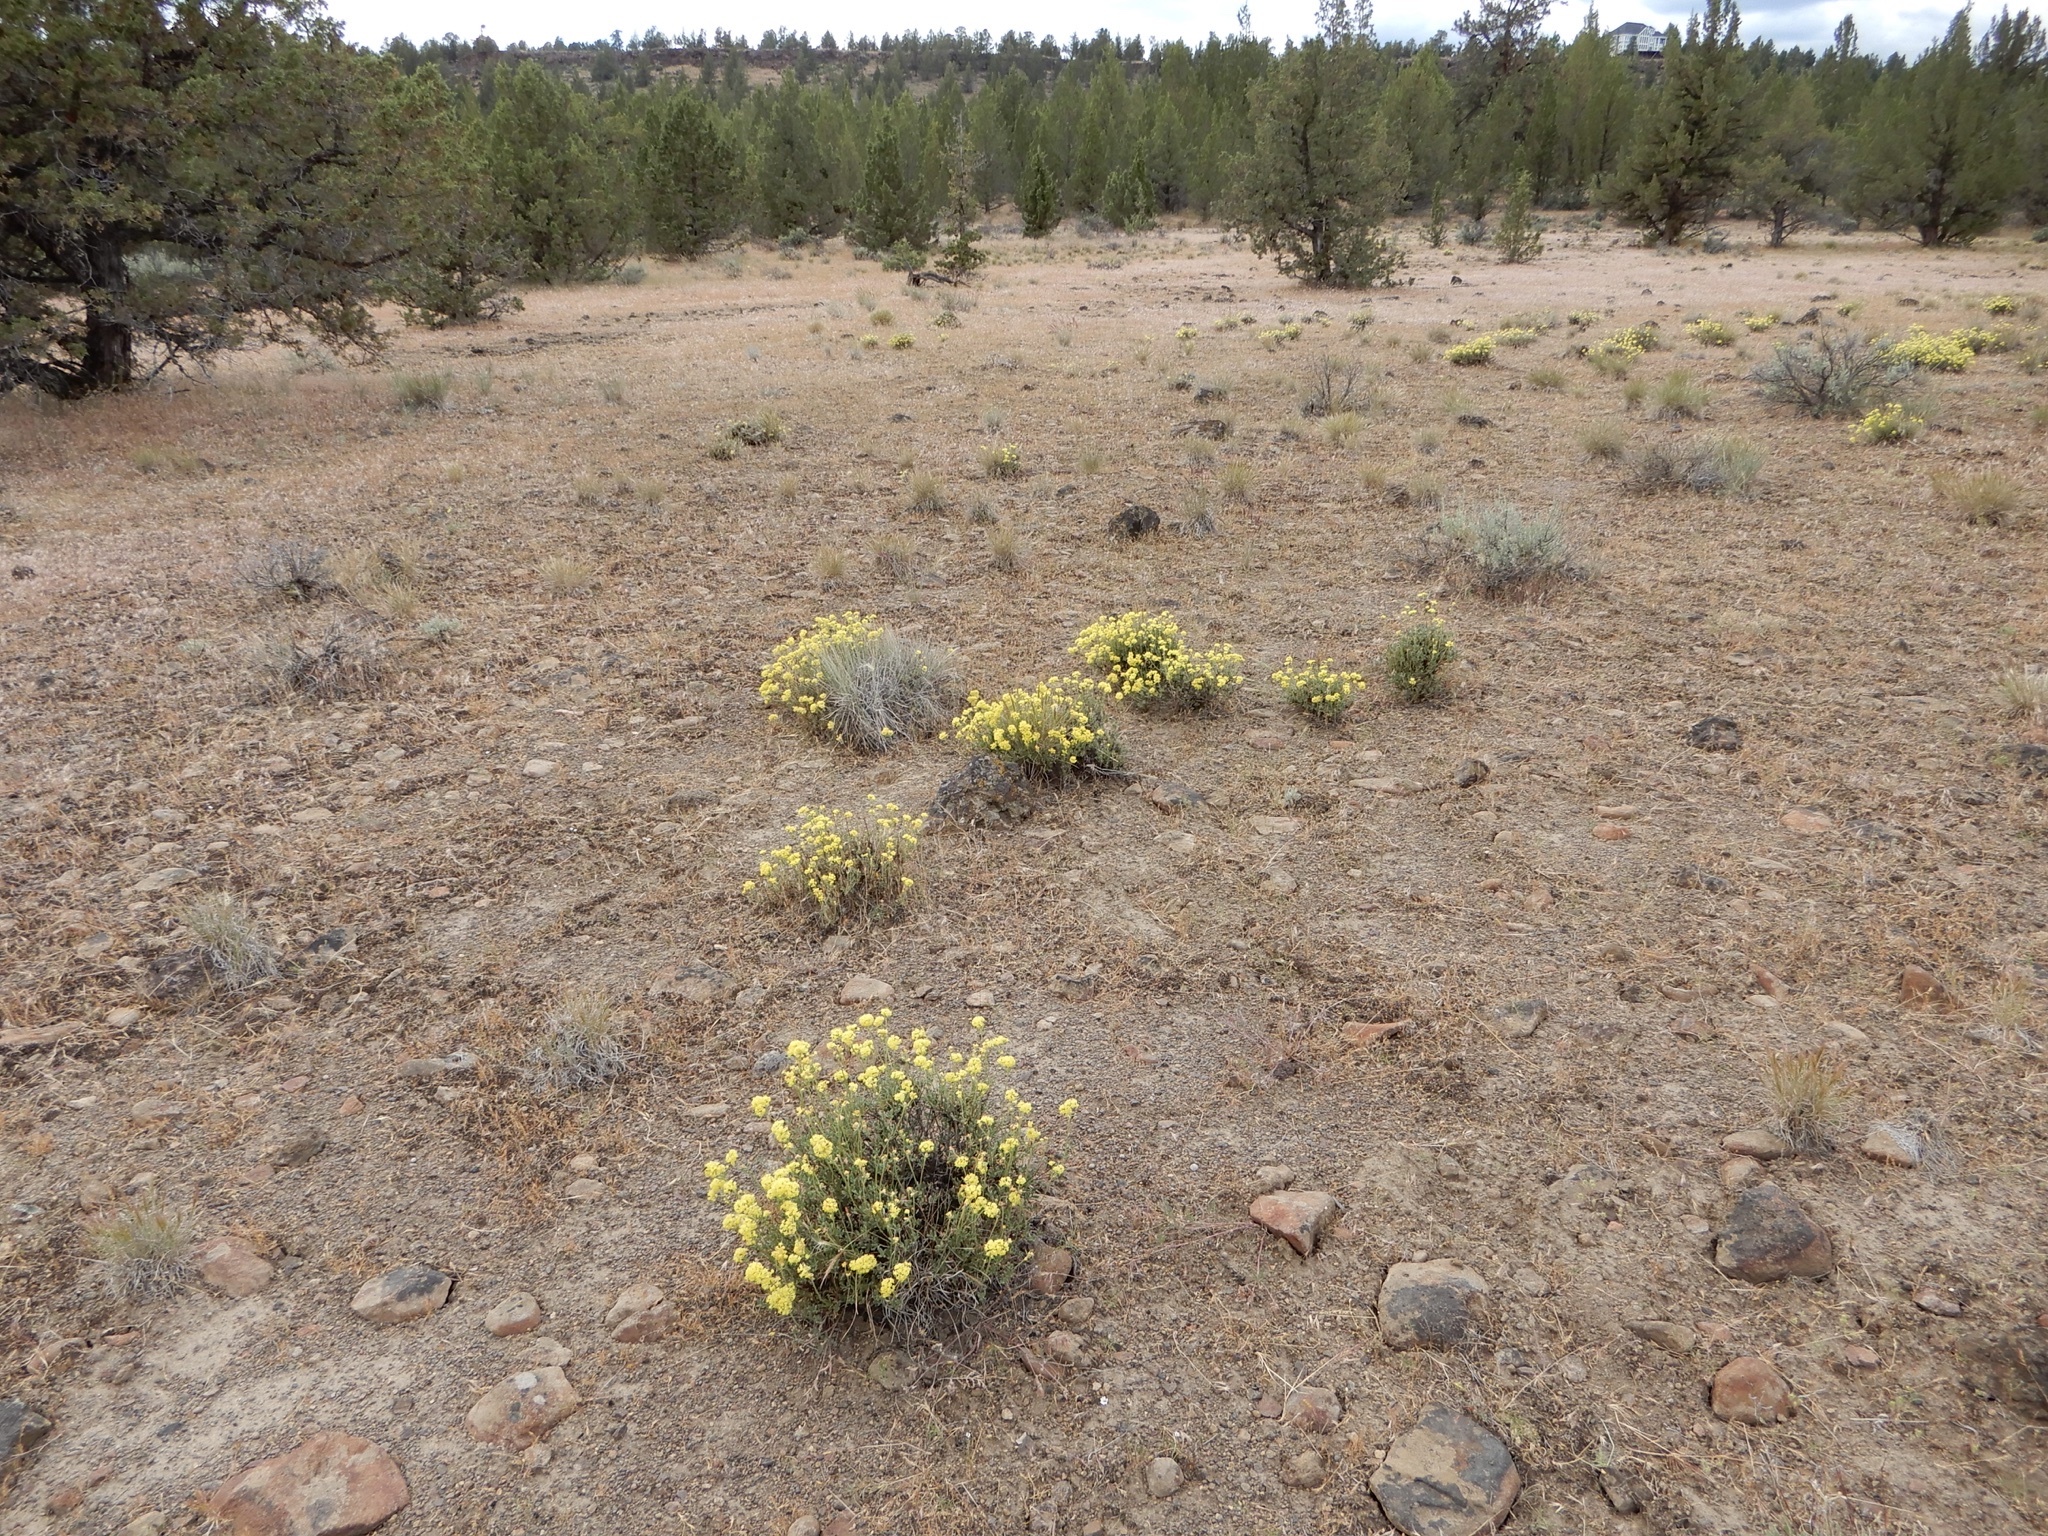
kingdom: Plantae
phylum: Tracheophyta
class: Magnoliopsida
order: Caryophyllales
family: Polygonaceae
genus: Eriogonum
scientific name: Eriogonum umbellatum
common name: Sulfur-buckwheat
